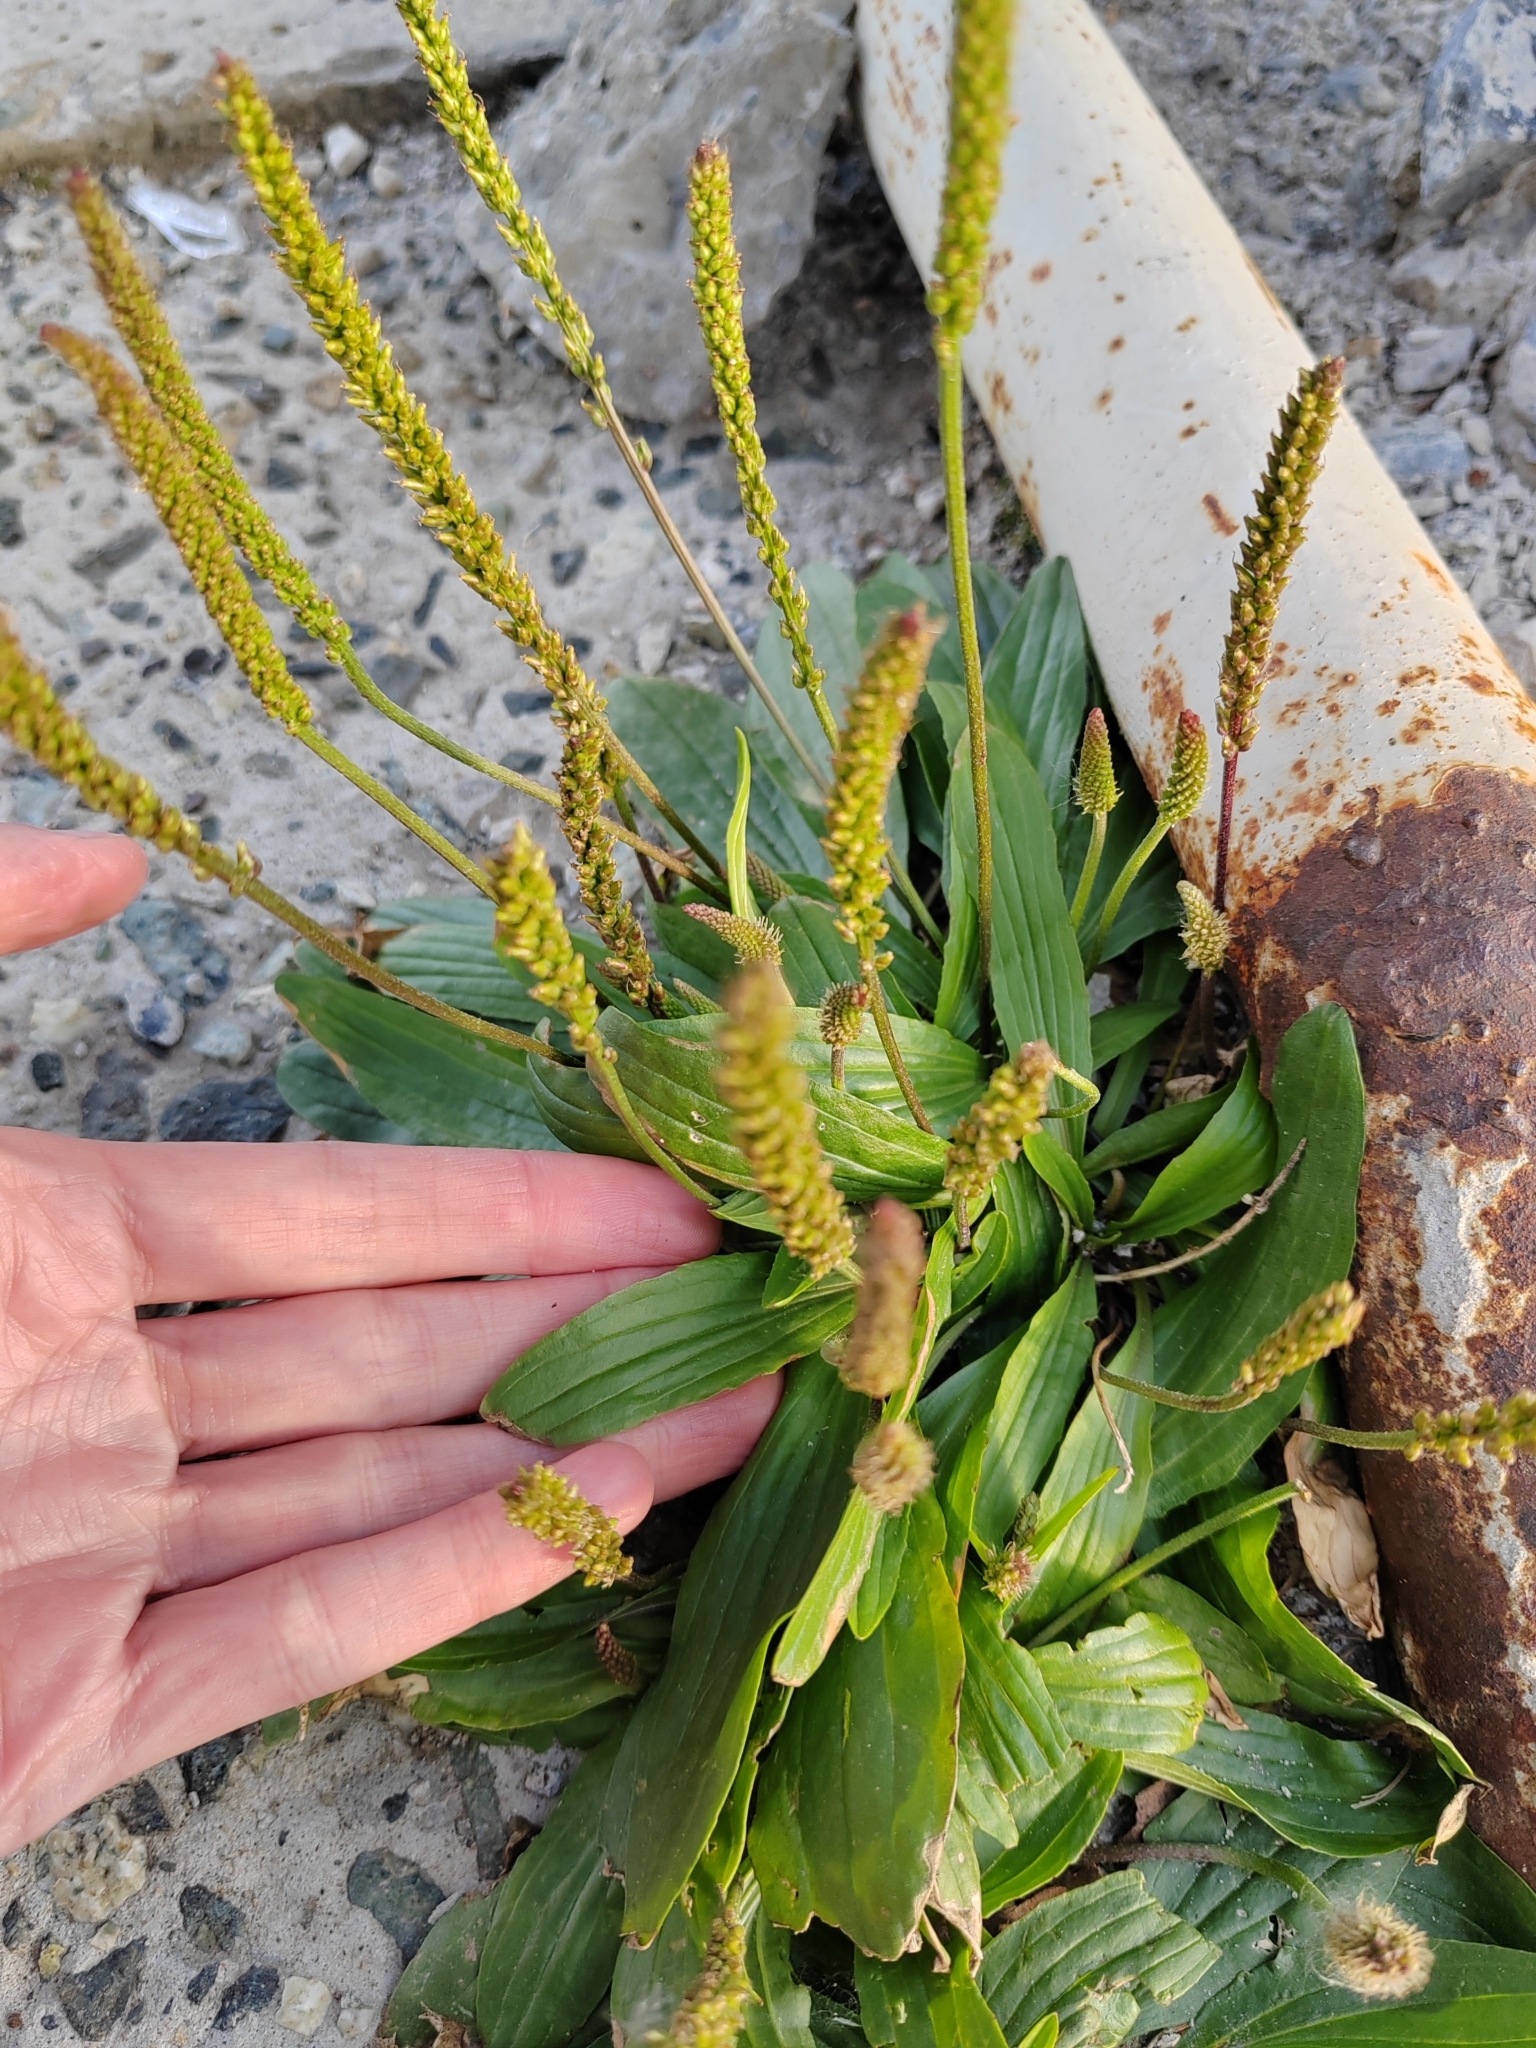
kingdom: Plantae
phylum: Tracheophyta
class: Magnoliopsida
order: Lamiales
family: Plantaginaceae
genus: Plantago
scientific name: Plantago depressa
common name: Depressed plantain
